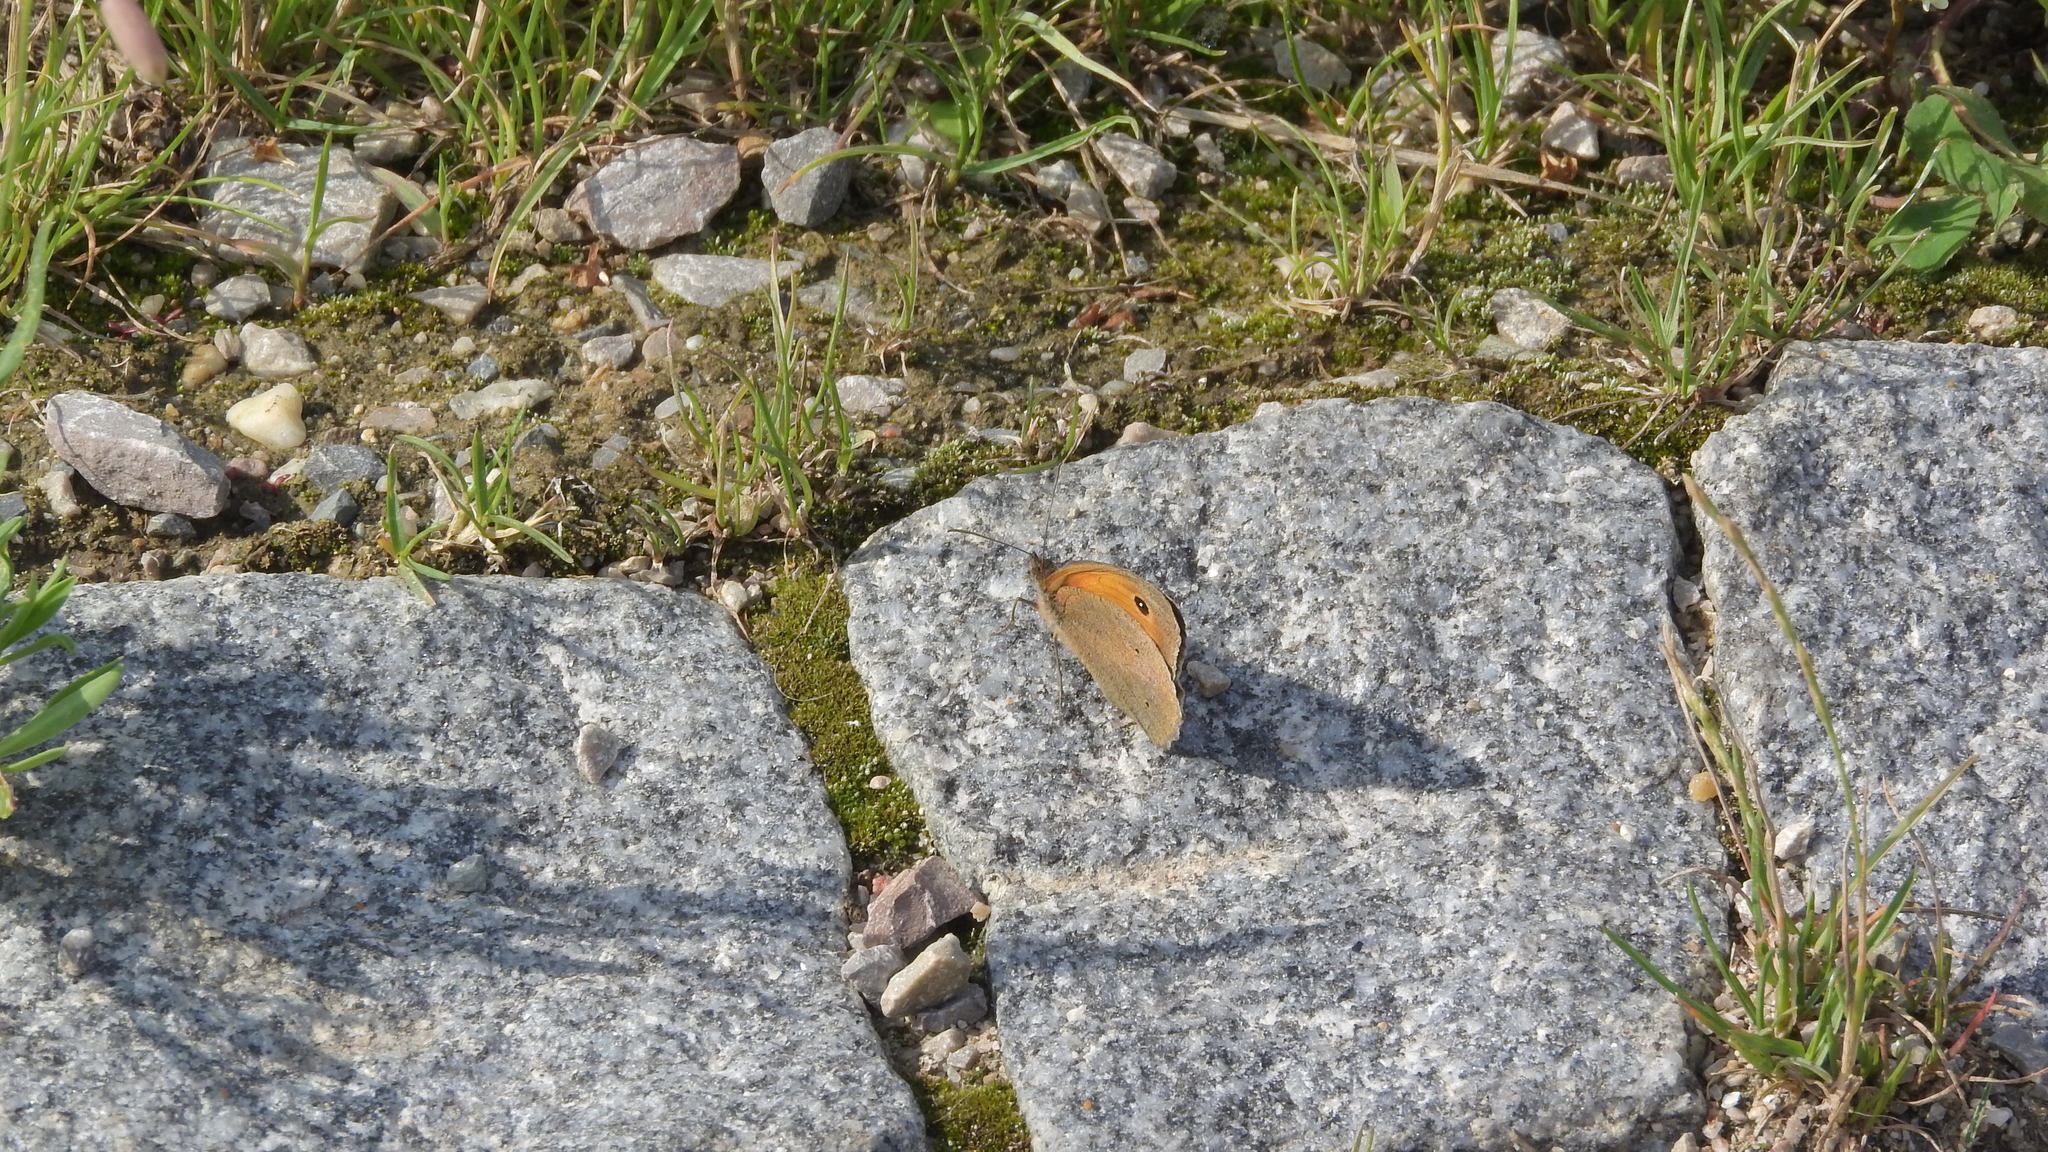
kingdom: Animalia
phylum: Arthropoda
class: Insecta
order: Lepidoptera
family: Nymphalidae
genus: Maniola
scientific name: Maniola jurtina
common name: Meadow brown
